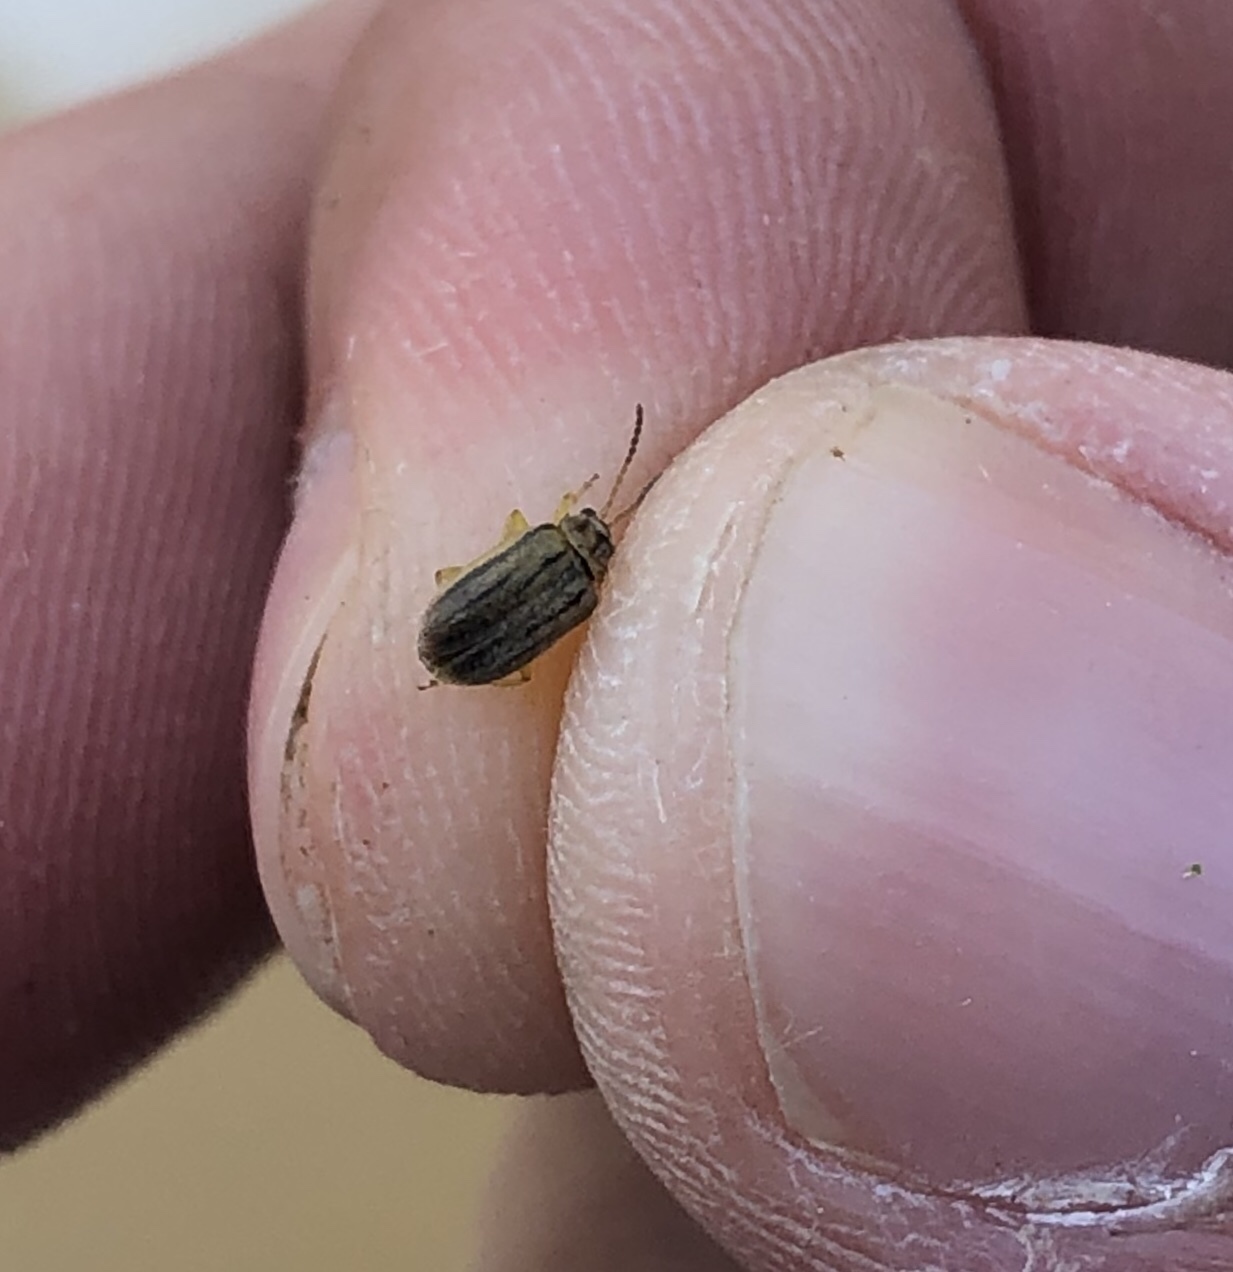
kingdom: Animalia
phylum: Arthropoda
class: Insecta
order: Coleoptera
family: Chrysomelidae
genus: Ophraella
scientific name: Ophraella communa
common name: Ragweed leaf beetle
